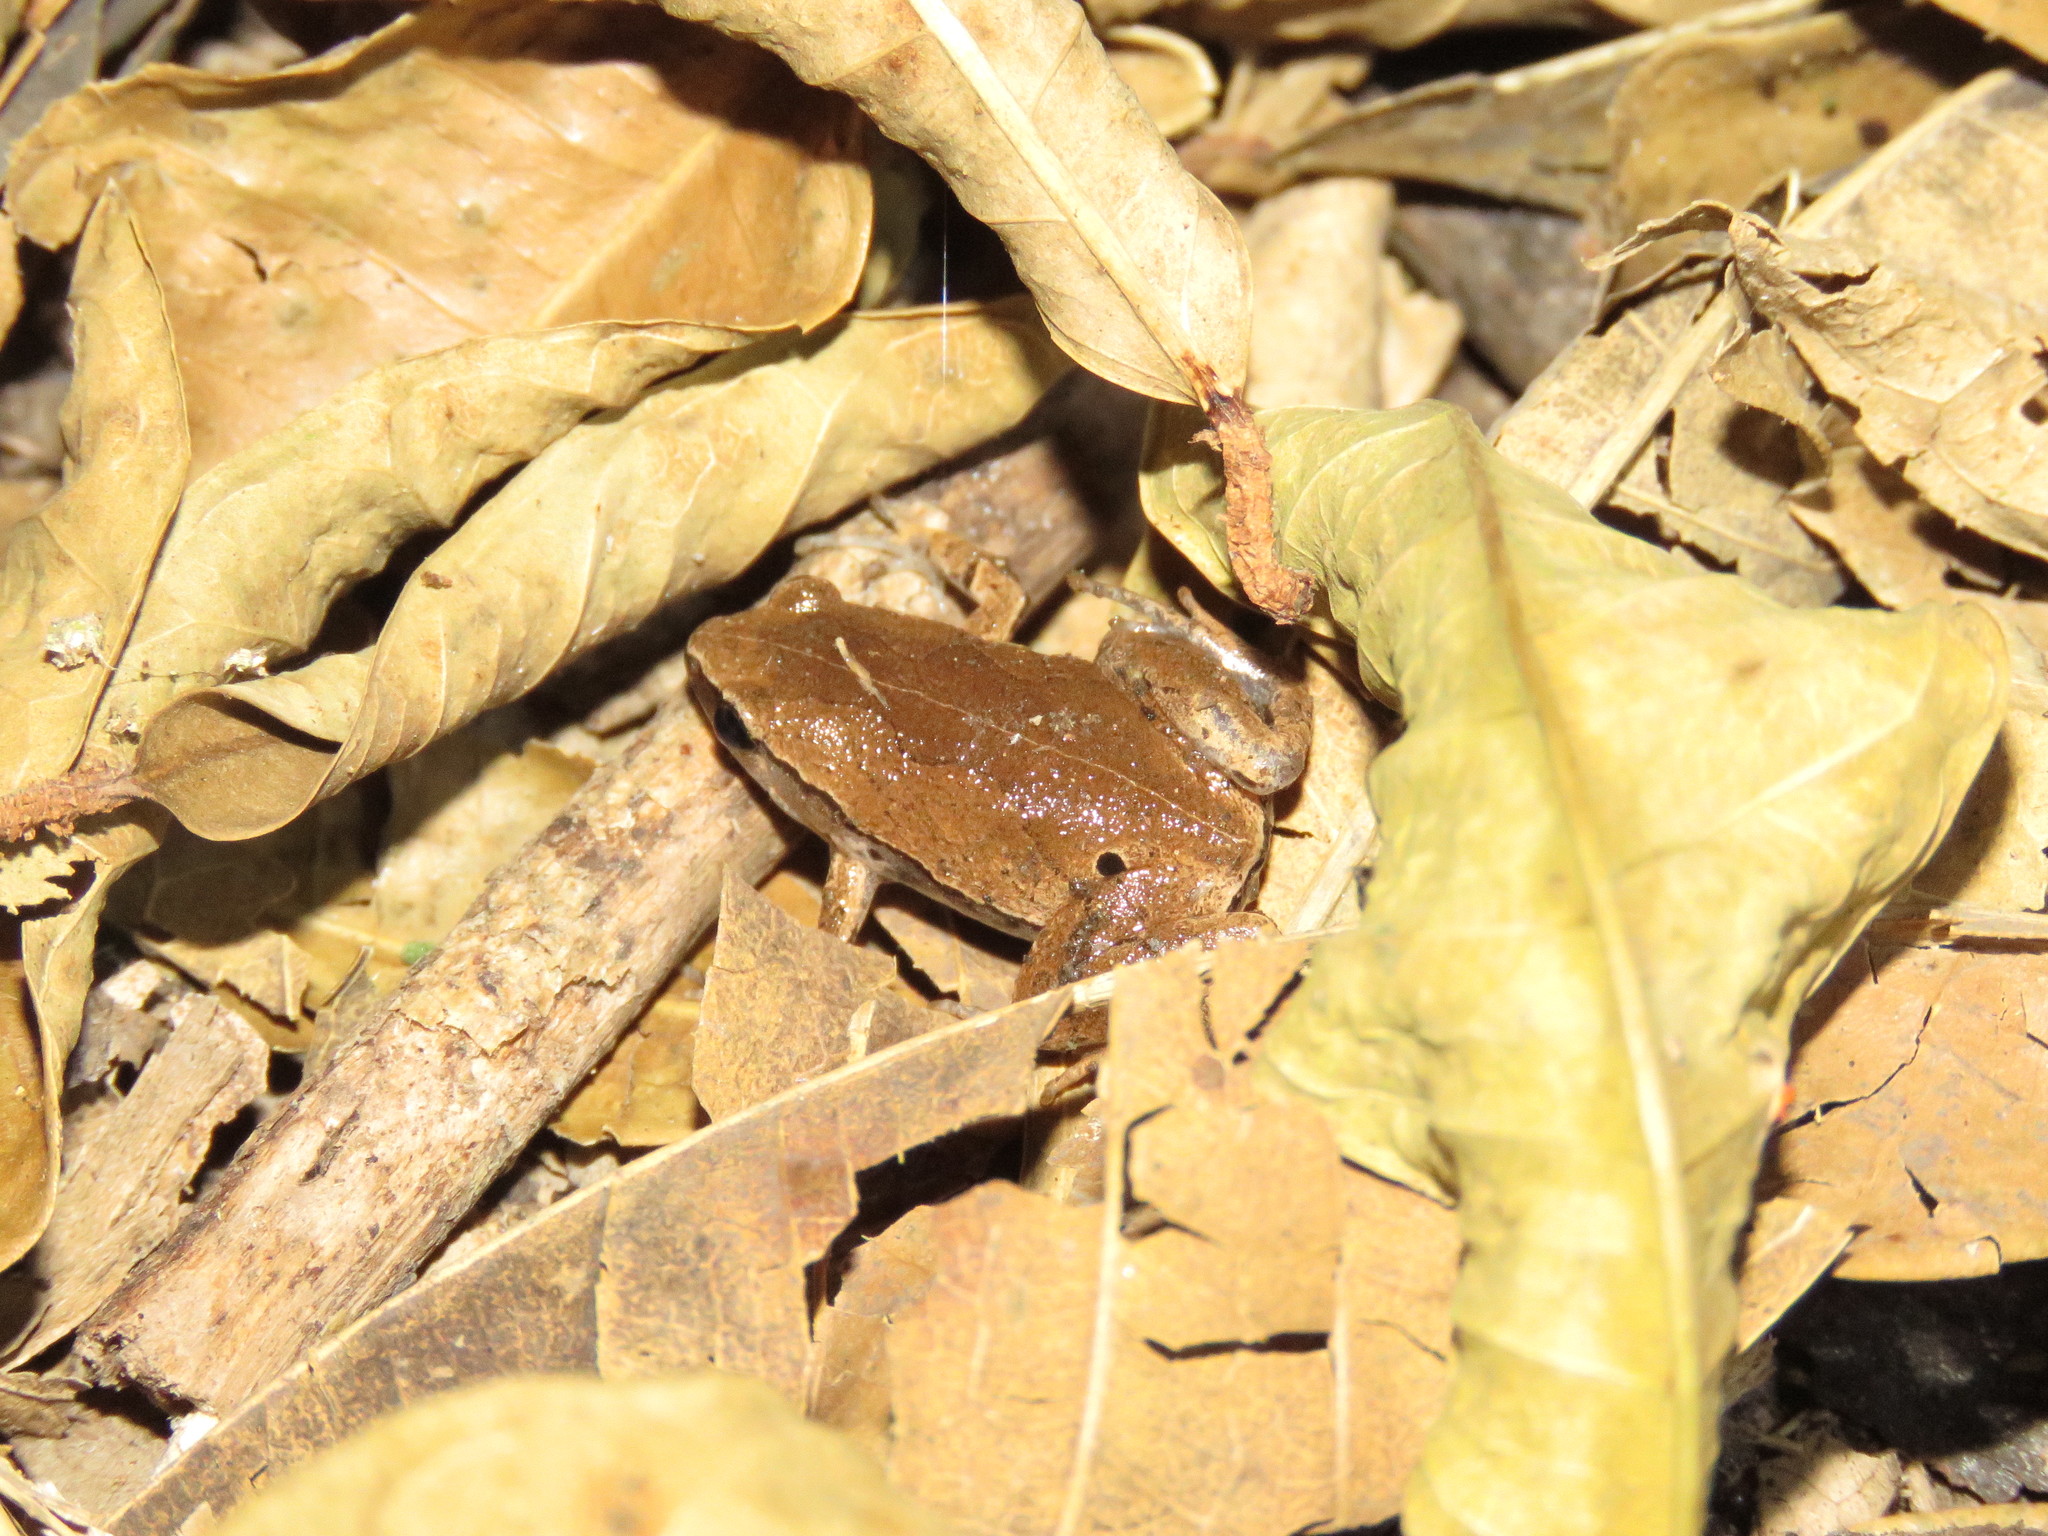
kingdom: Animalia
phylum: Chordata
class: Amphibia
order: Anura
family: Microhylidae
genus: Hamptophryne
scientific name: Hamptophryne boliviana
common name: Bolivian bleating frog
